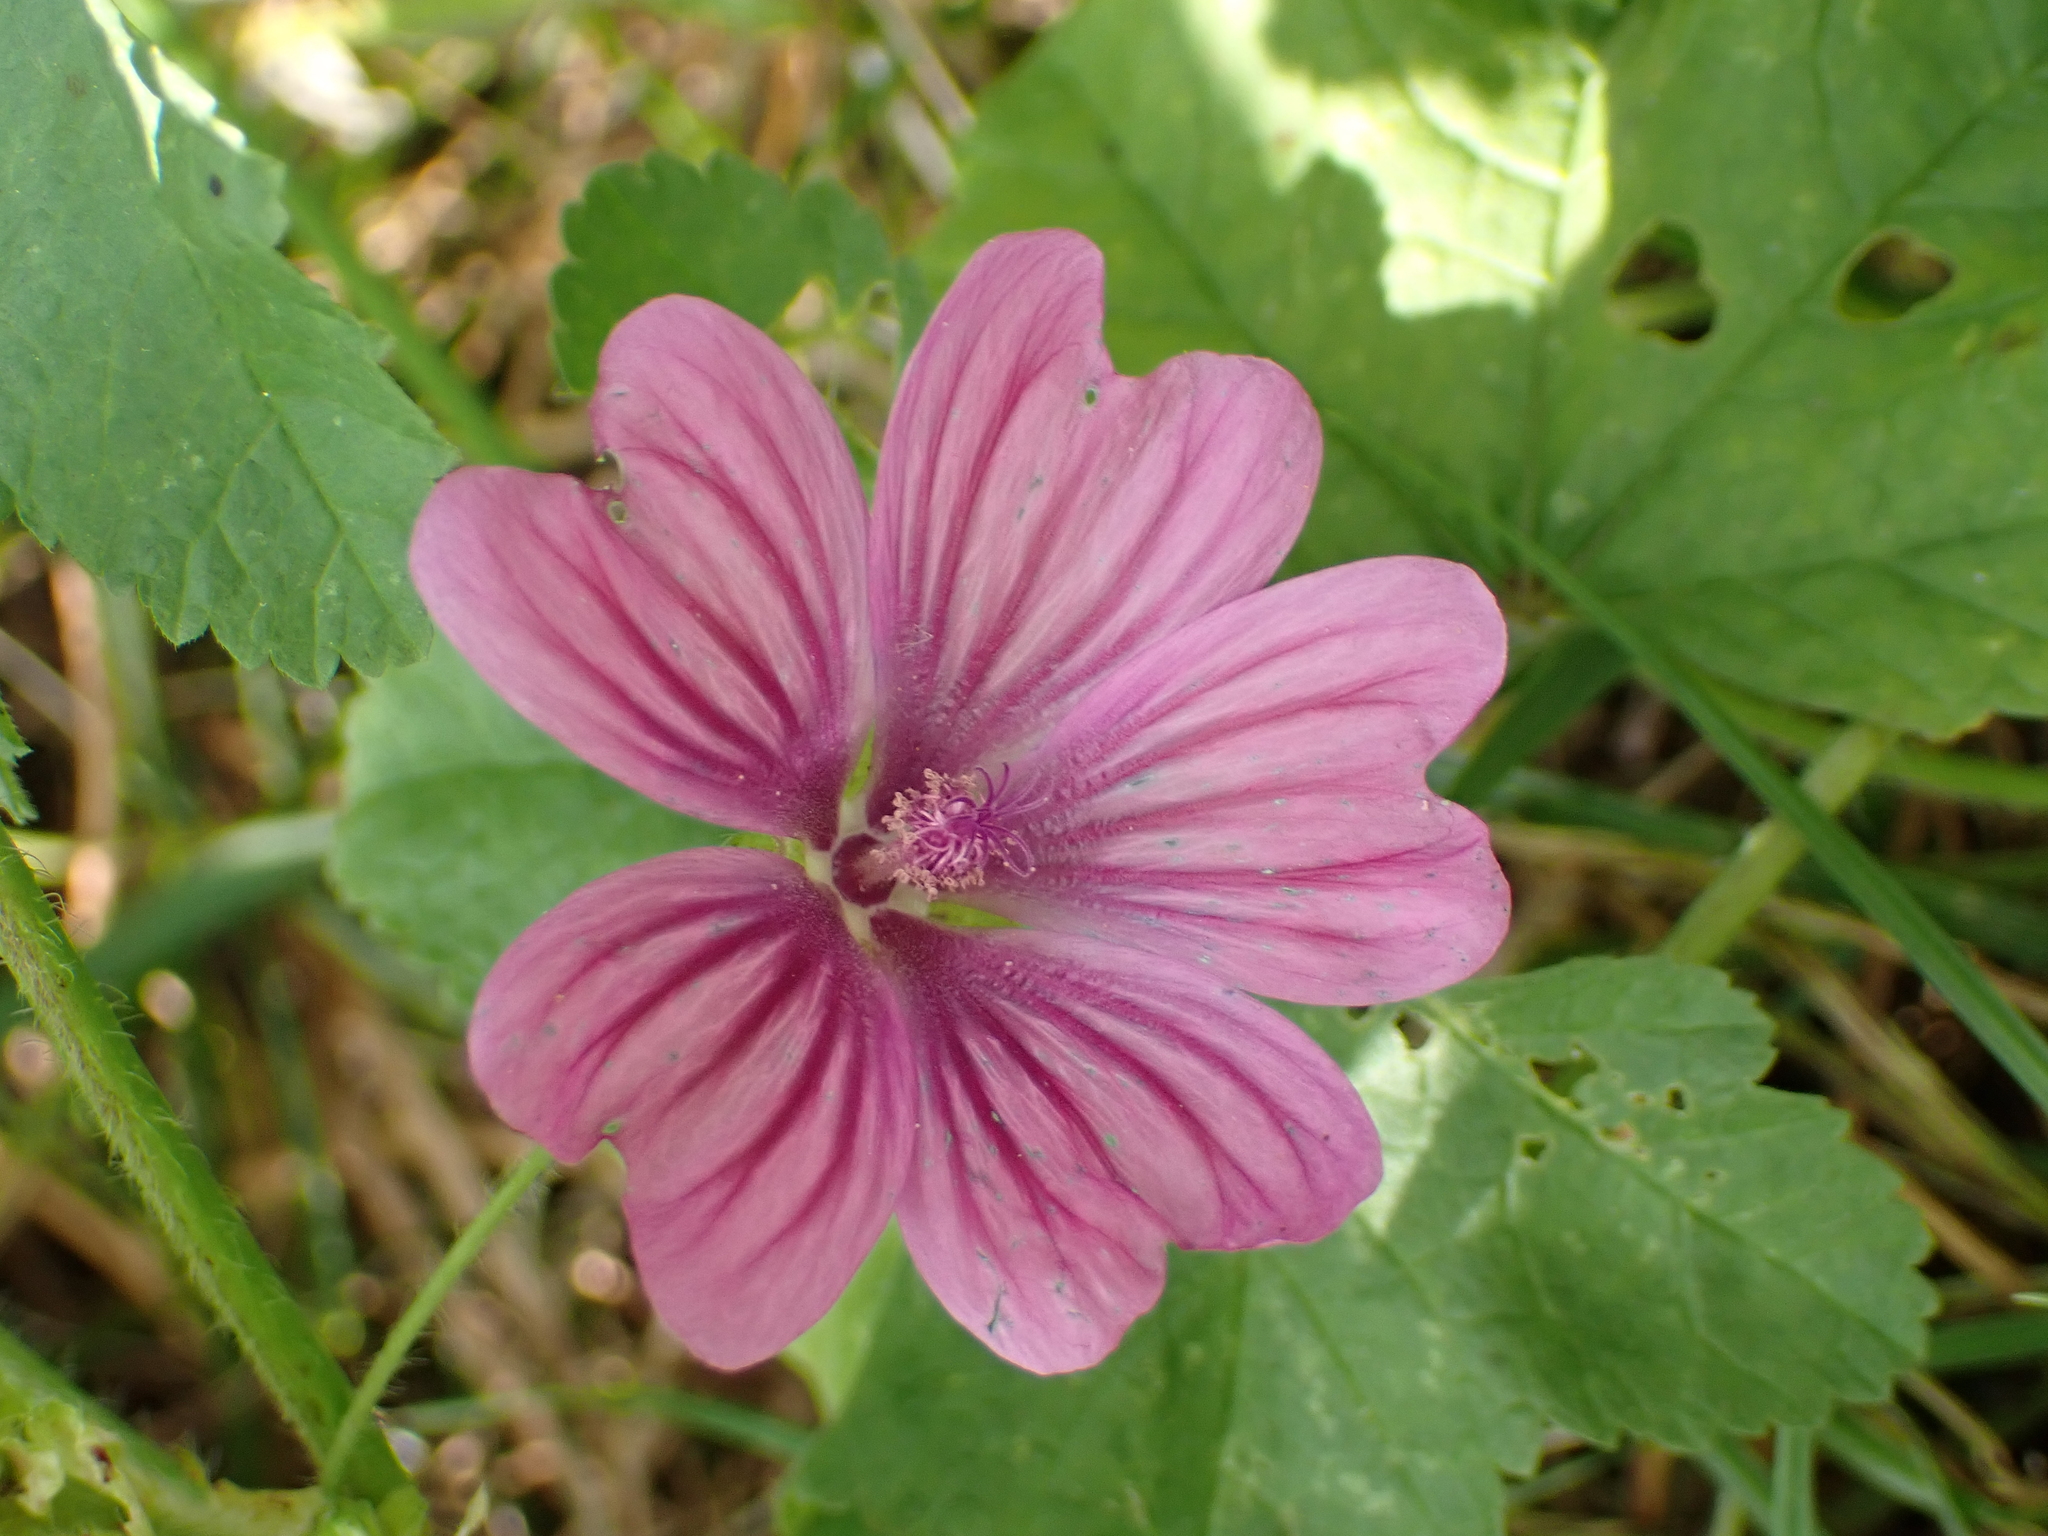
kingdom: Plantae
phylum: Tracheophyta
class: Magnoliopsida
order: Malvales
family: Malvaceae
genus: Malva
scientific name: Malva sylvestris
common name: Common mallow
